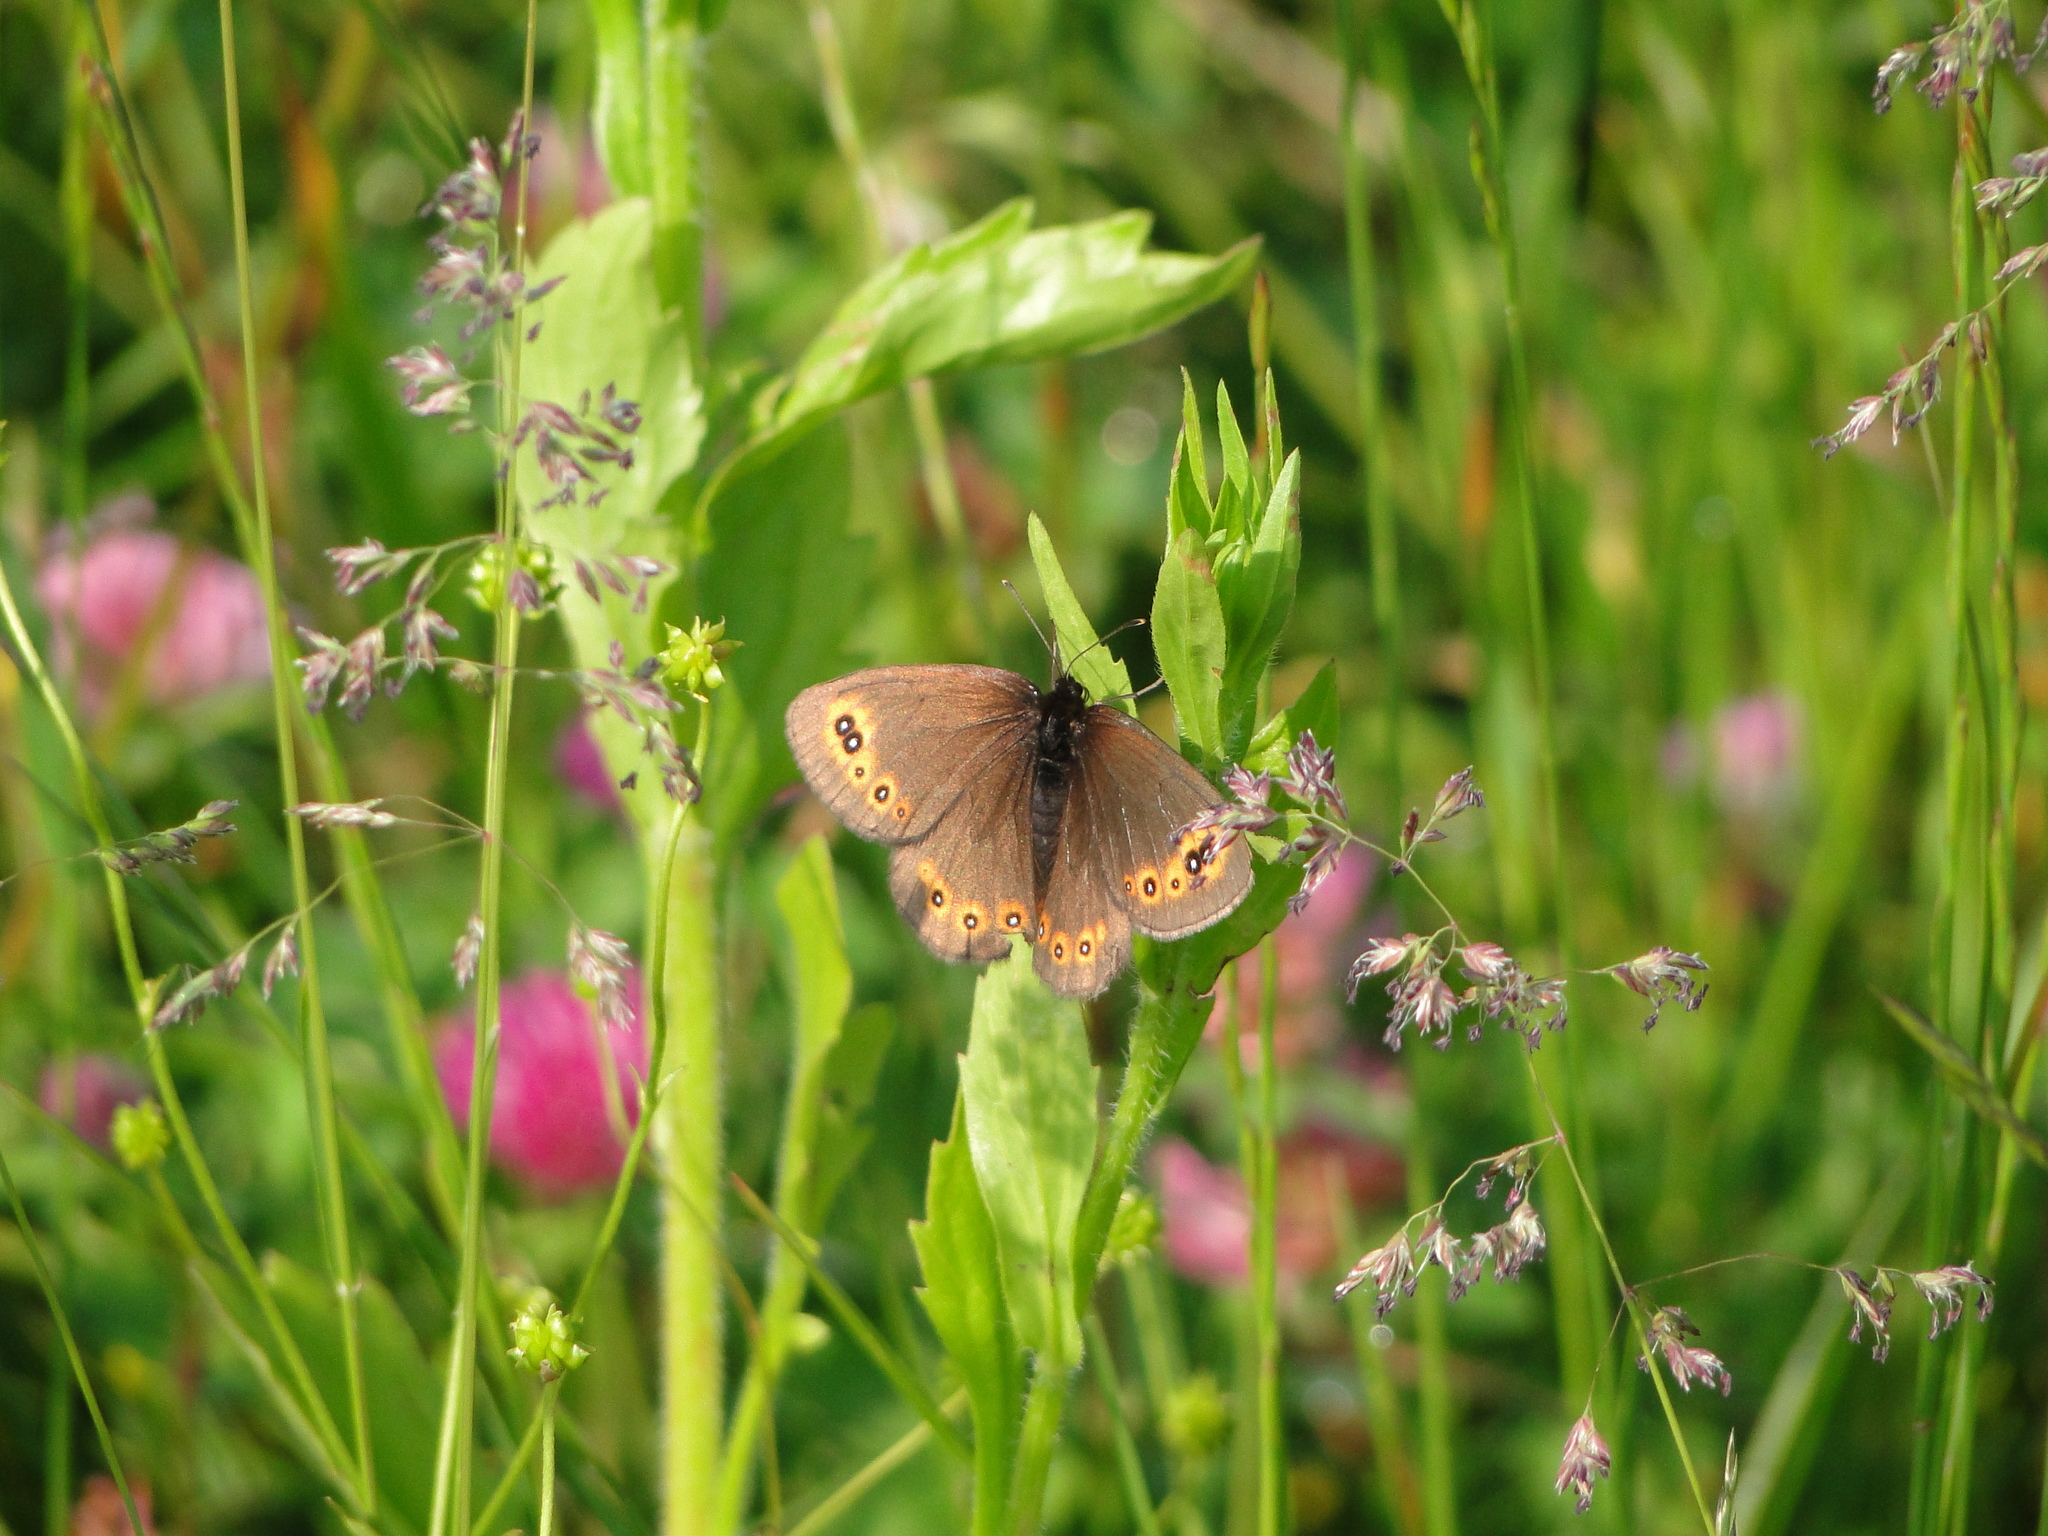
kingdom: Animalia
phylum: Arthropoda
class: Insecta
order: Lepidoptera
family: Nymphalidae
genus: Erebia
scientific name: Erebia medusa
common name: Woodland ringlet
